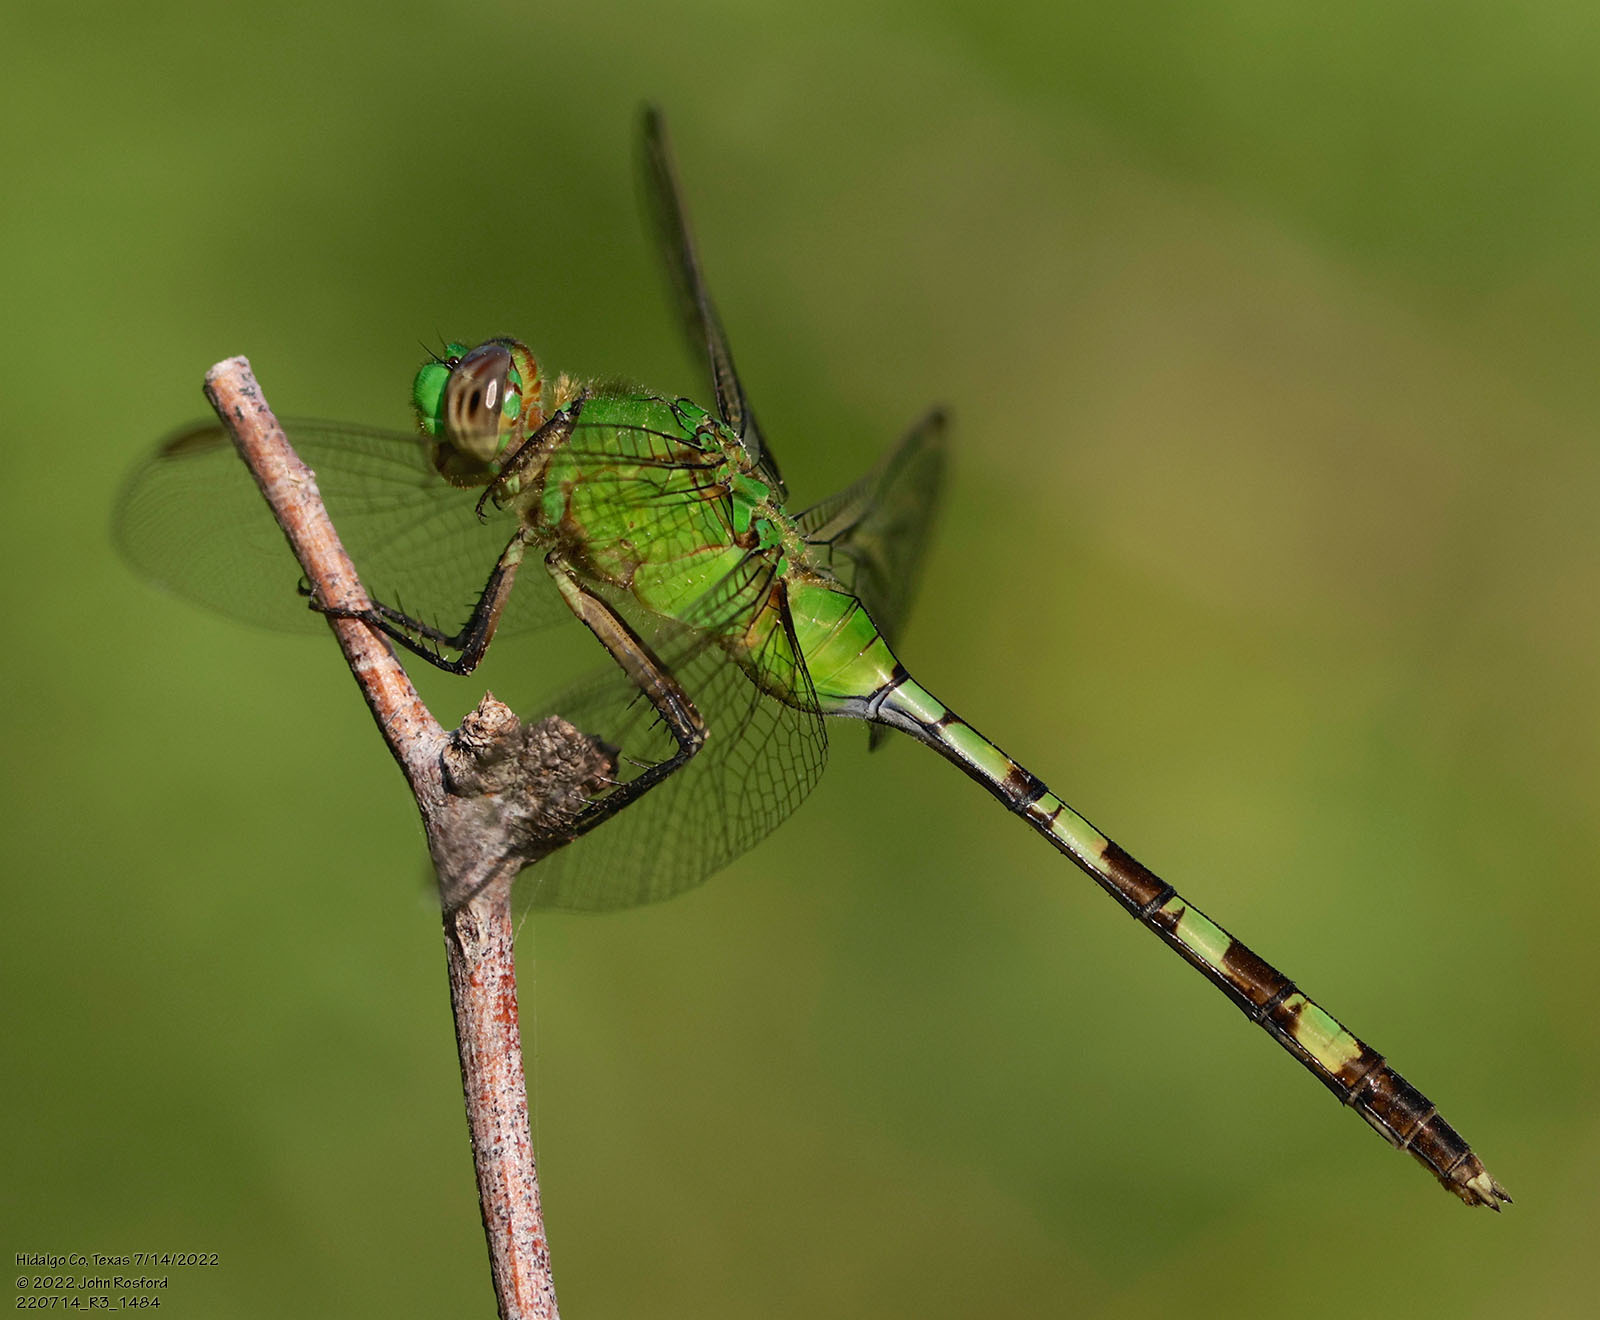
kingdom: Animalia
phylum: Arthropoda
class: Insecta
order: Odonata
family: Libellulidae
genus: Erythemis
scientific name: Erythemis vesiculosa
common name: Great pondhawk
